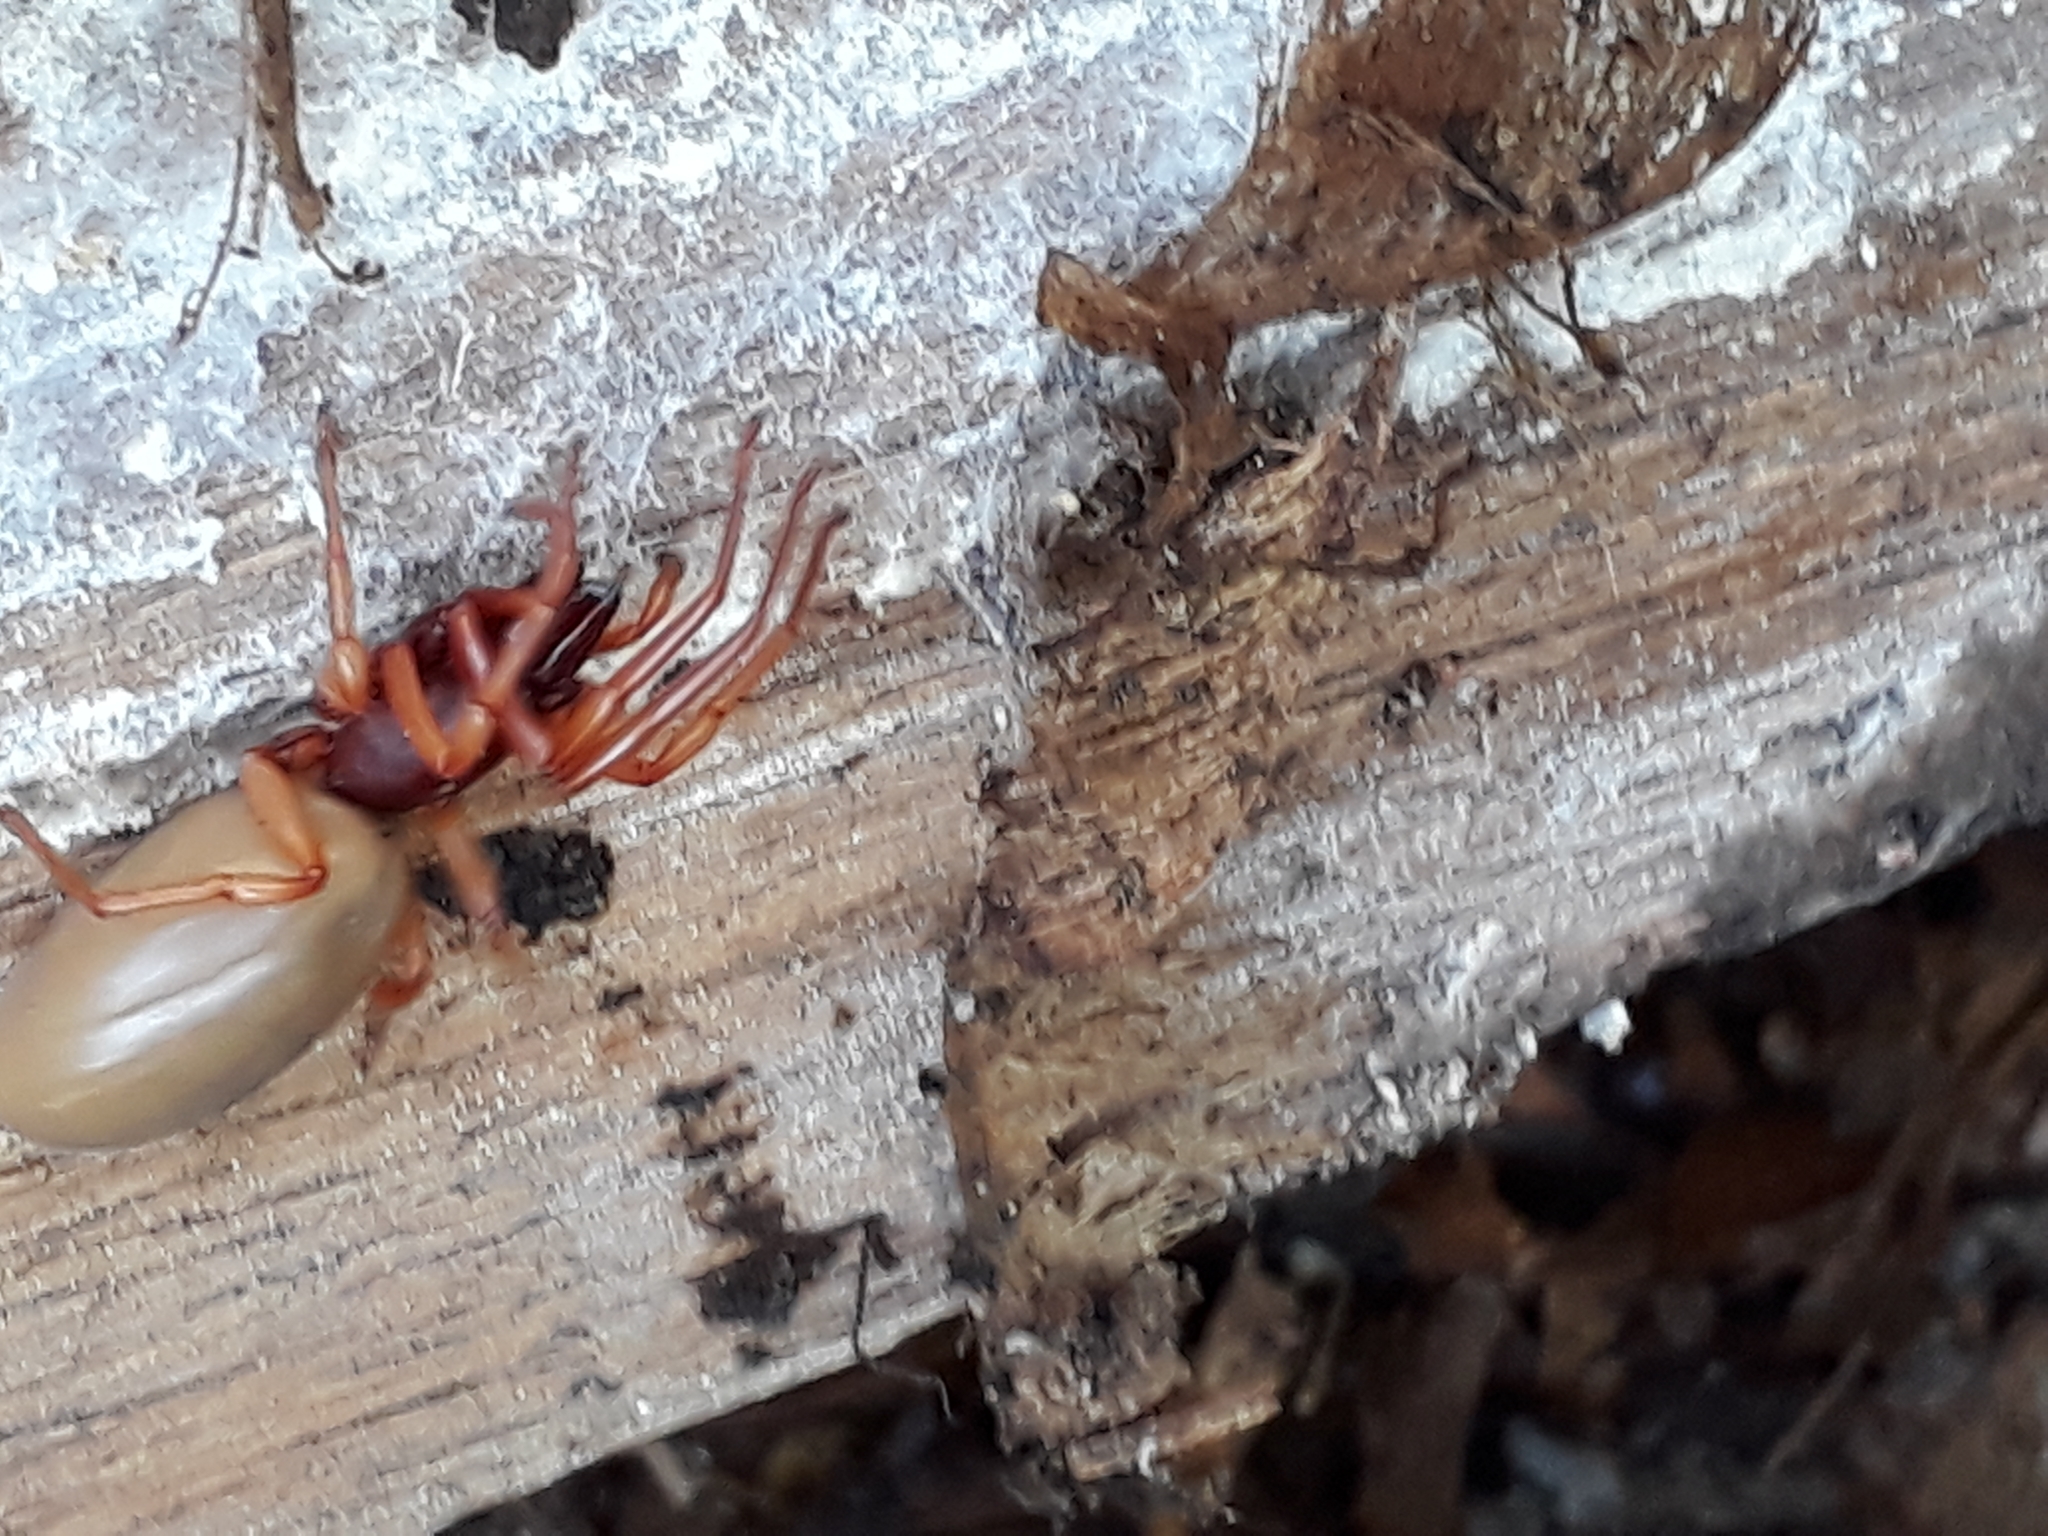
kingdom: Animalia
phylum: Arthropoda
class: Arachnida
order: Araneae
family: Dysderidae
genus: Dysdera
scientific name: Dysdera crocata
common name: Woodlouse spider
